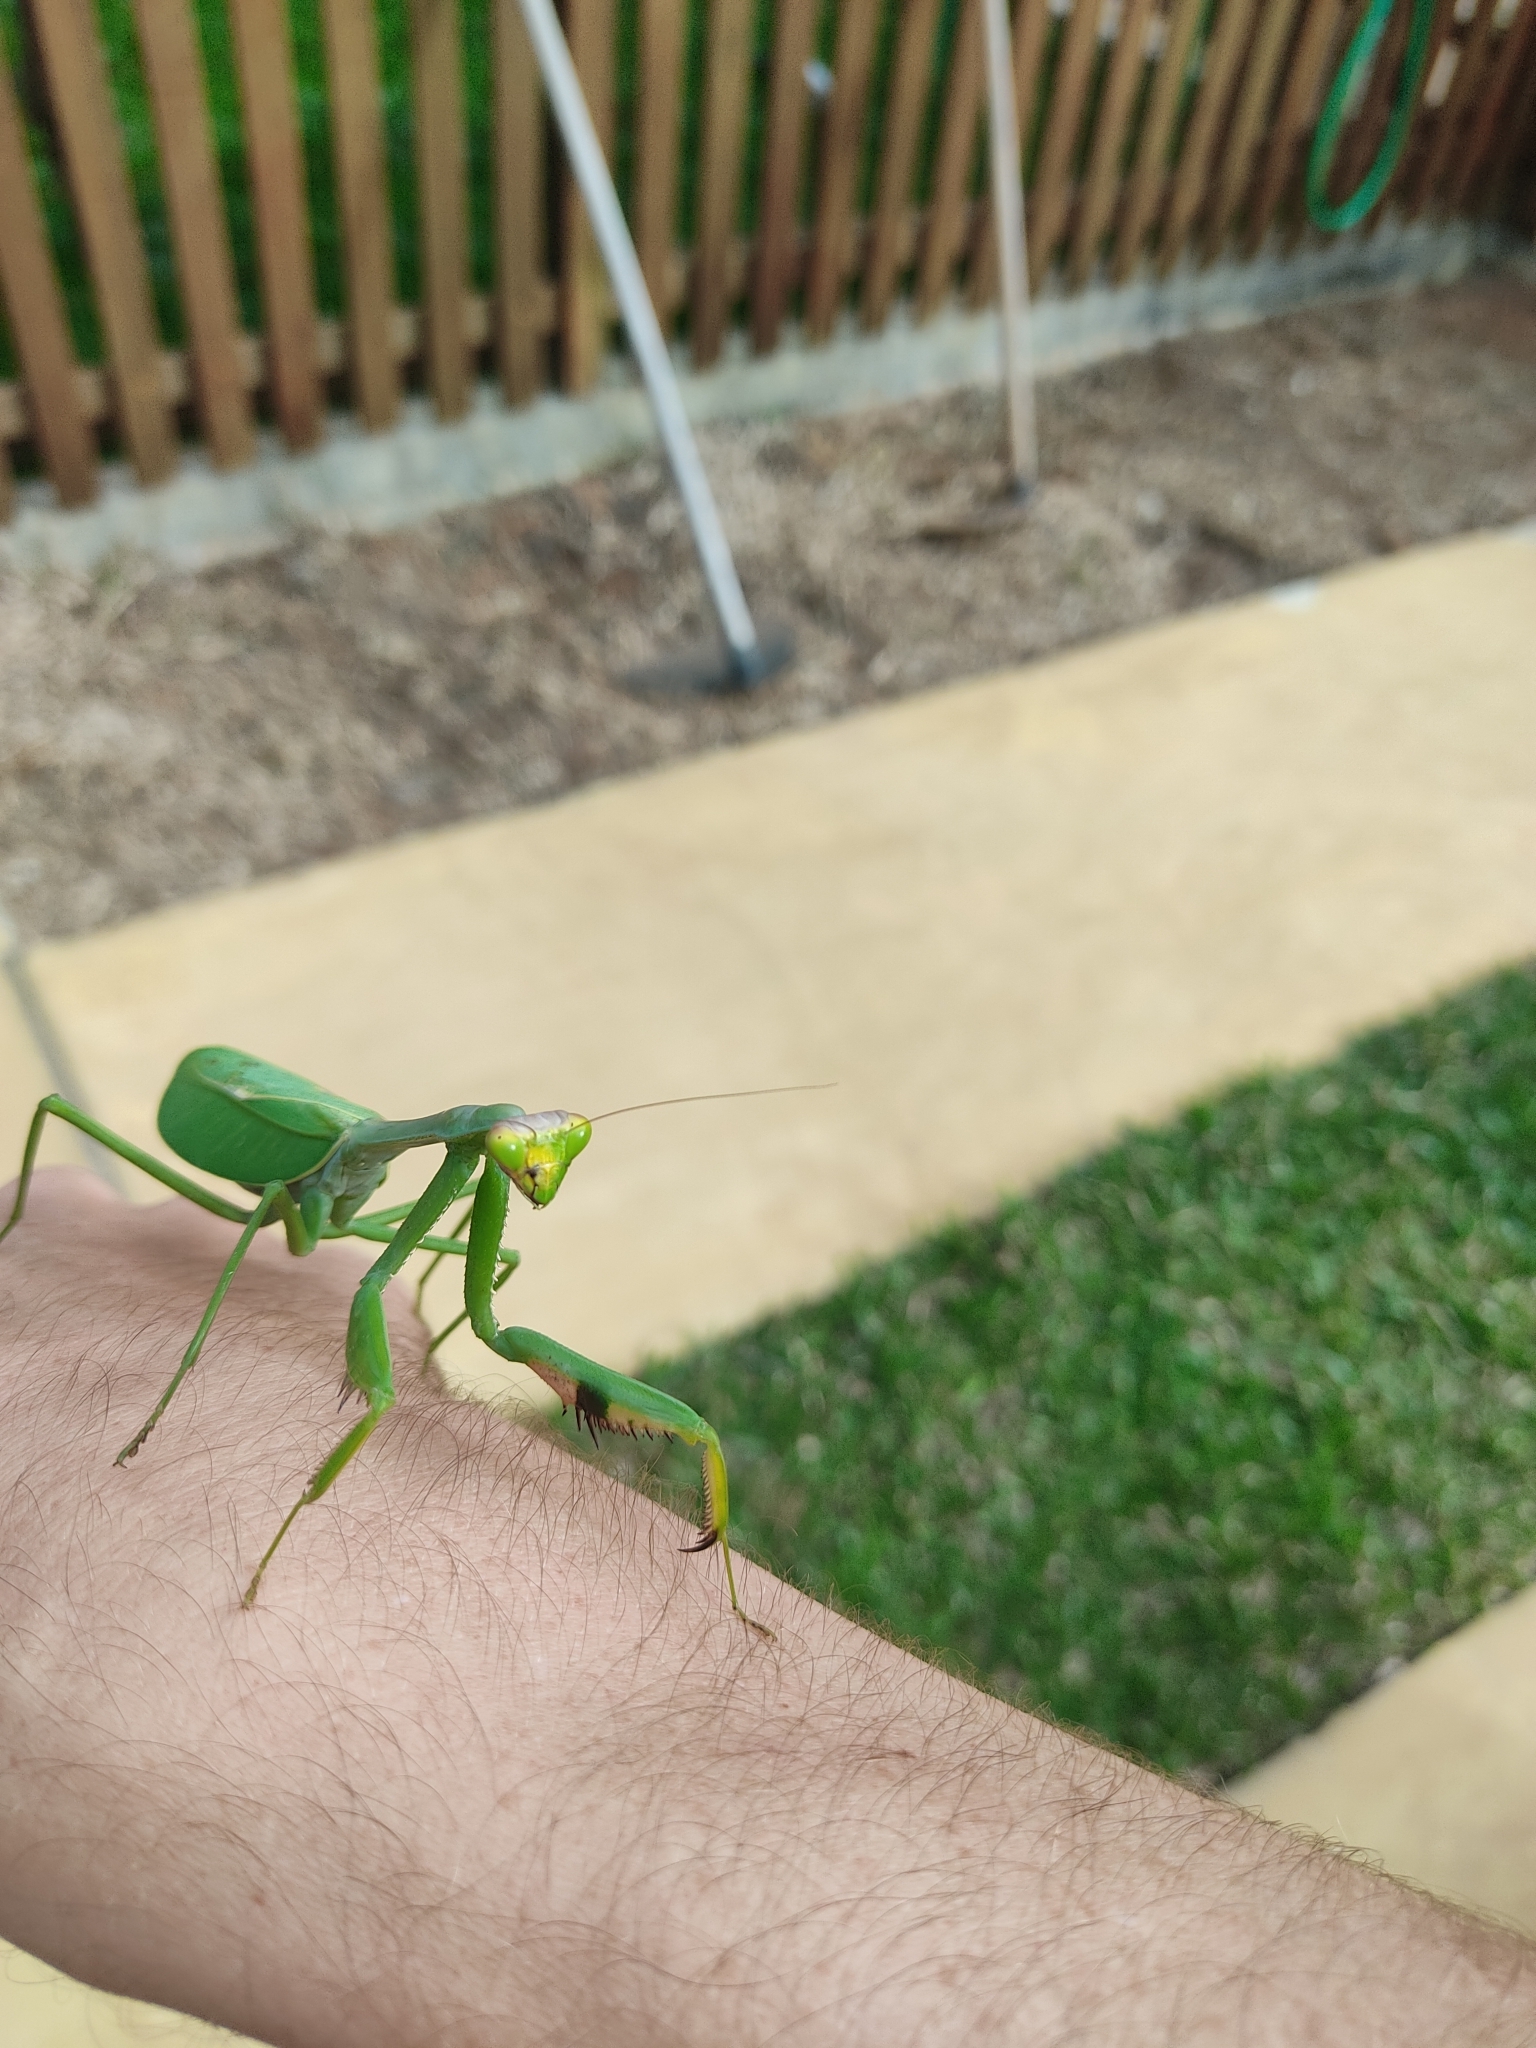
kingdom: Animalia
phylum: Arthropoda
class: Insecta
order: Mantodea
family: Mantidae
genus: Stagmatoptera
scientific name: Stagmatoptera praecaria
